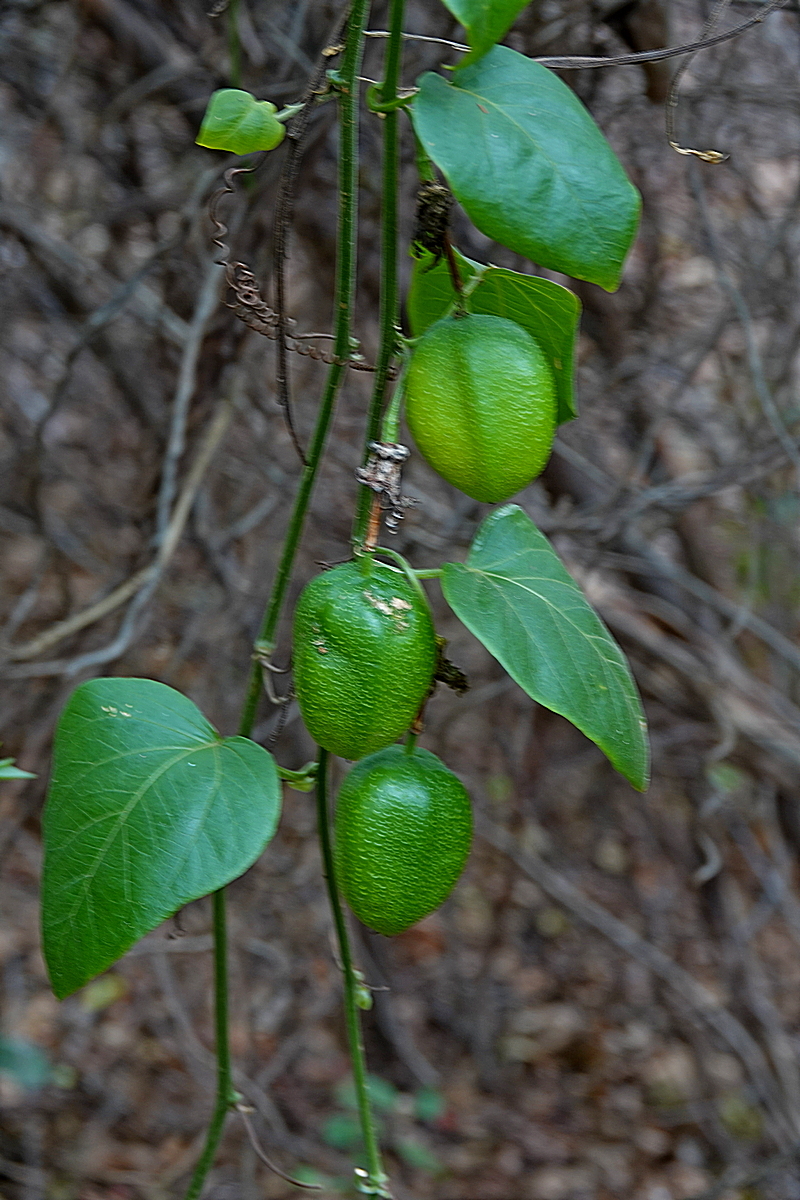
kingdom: Plantae
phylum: Tracheophyta
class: Magnoliopsida
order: Malpighiales
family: Passifloraceae
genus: Passiflora
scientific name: Passiflora herbertiana
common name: Yellow passionflower
